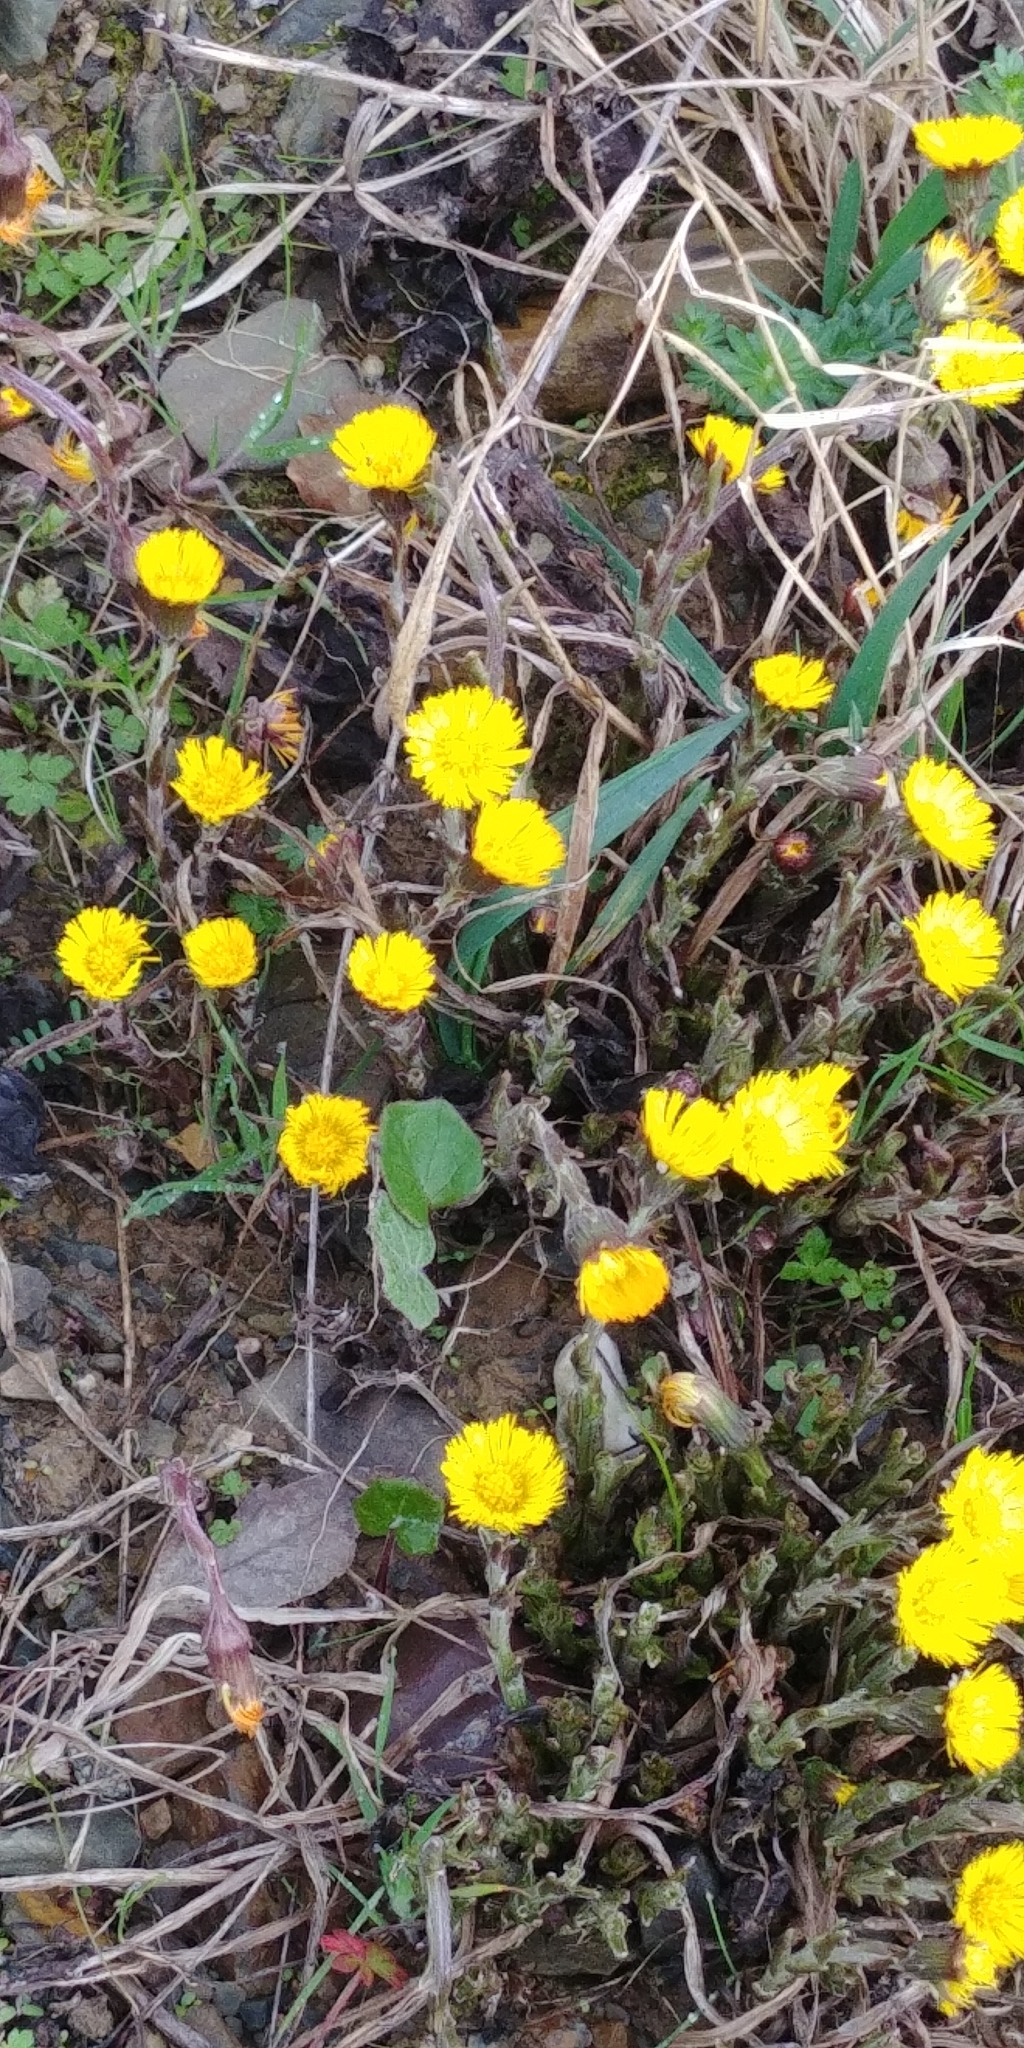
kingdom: Plantae
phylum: Tracheophyta
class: Magnoliopsida
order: Asterales
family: Asteraceae
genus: Tussilago
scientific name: Tussilago farfara
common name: Coltsfoot
